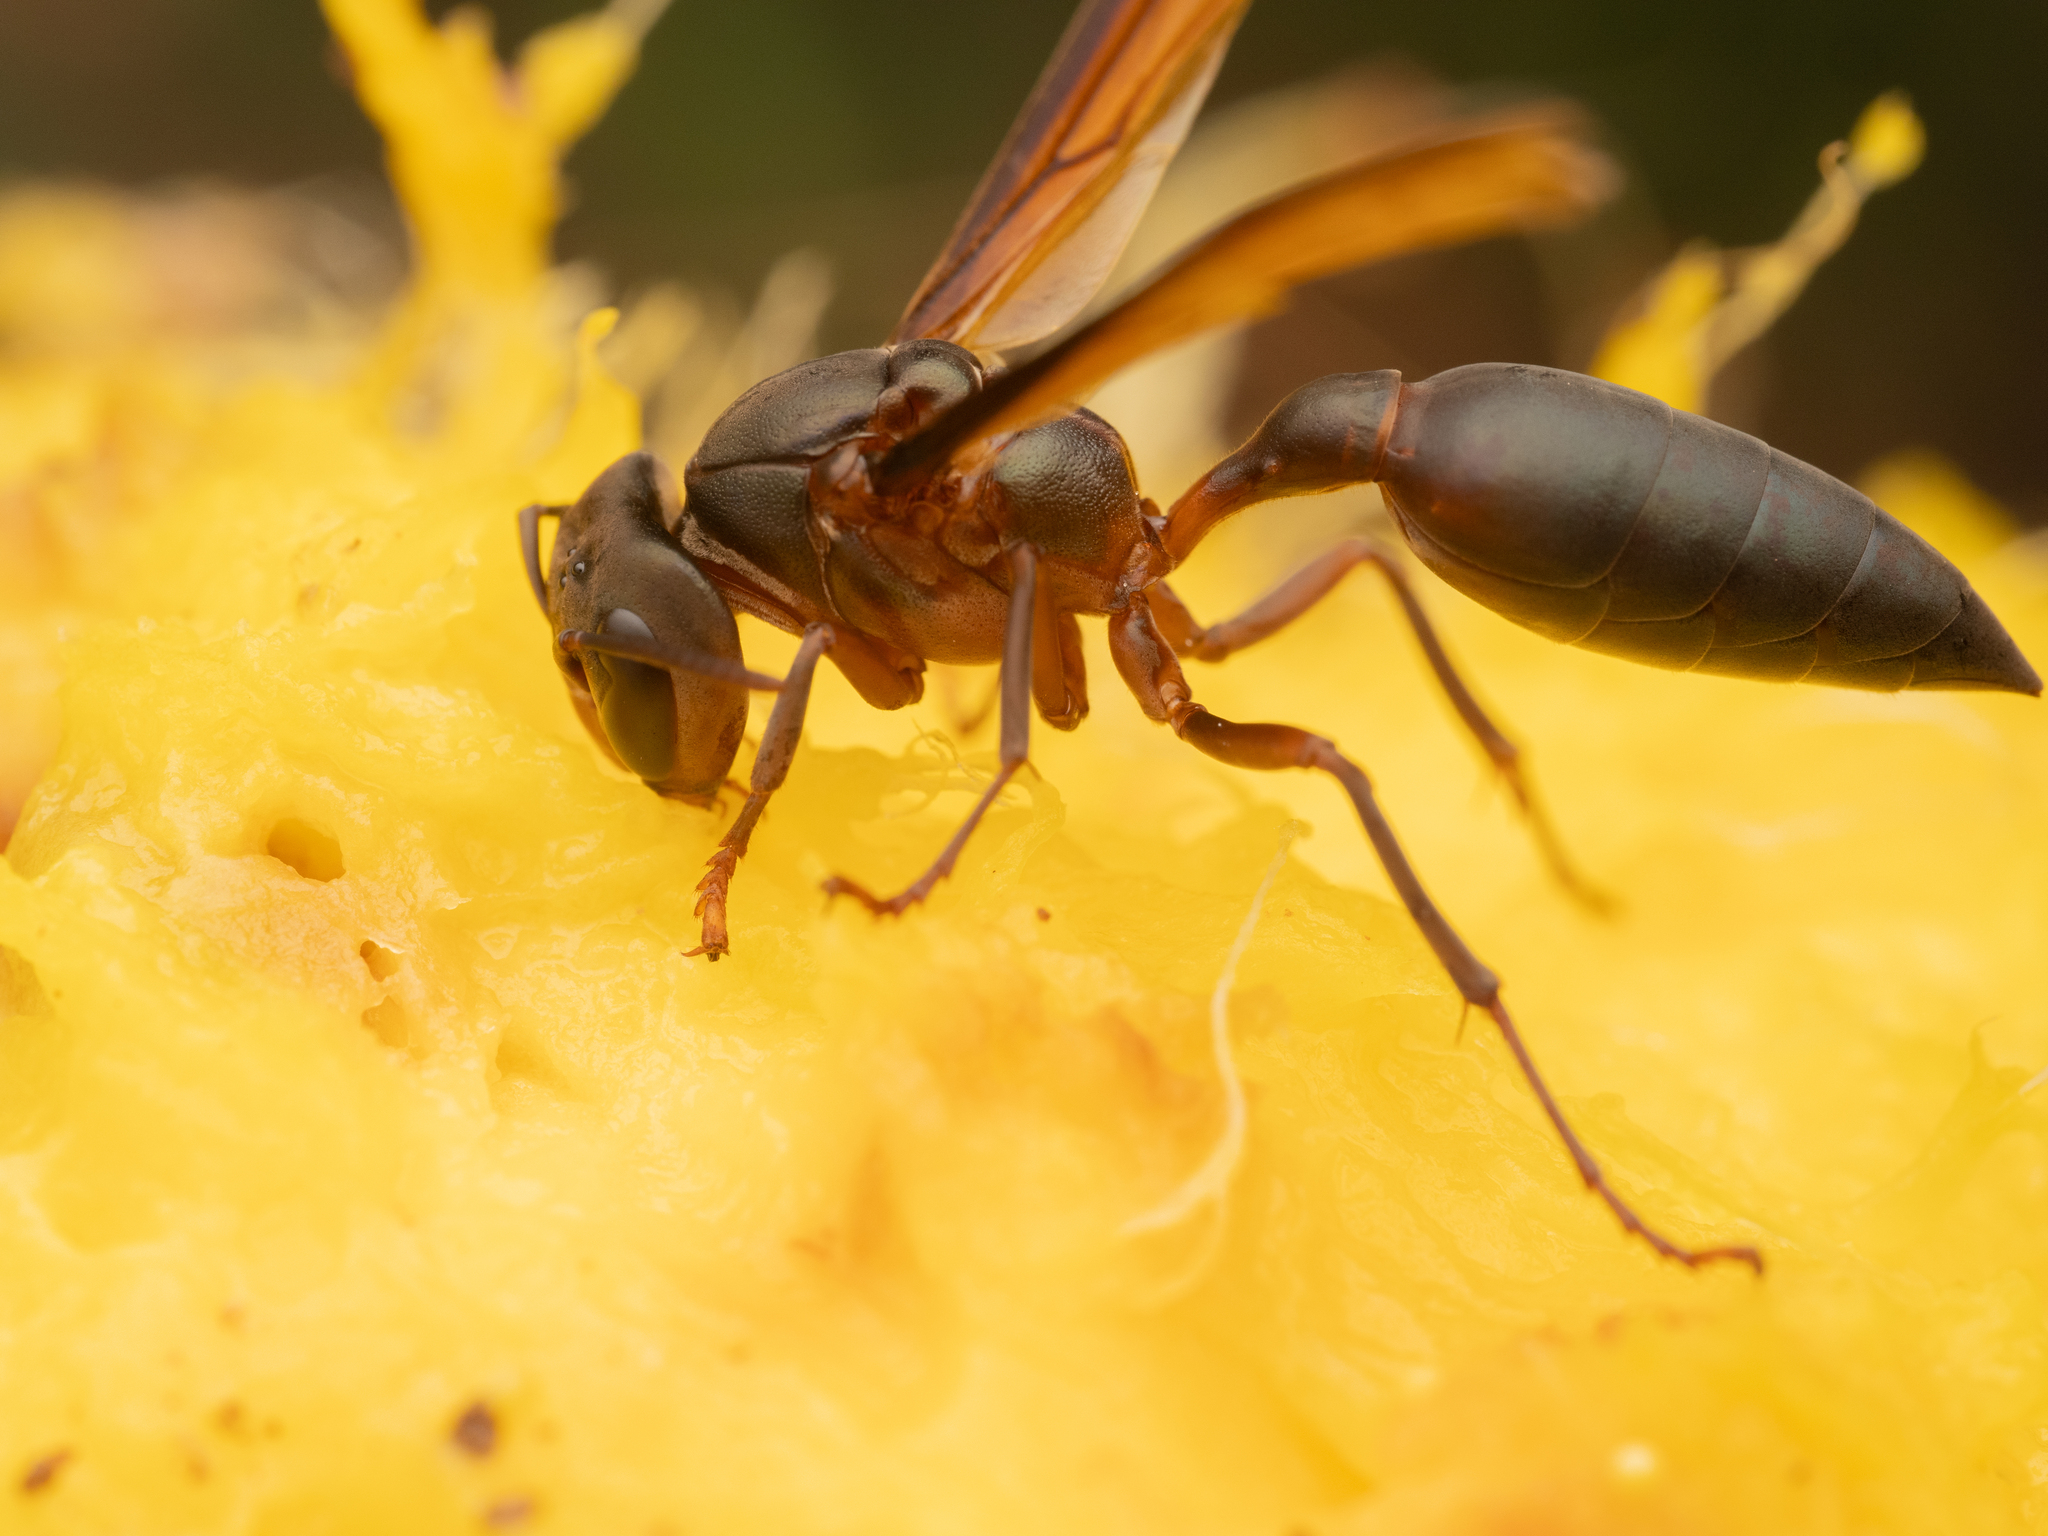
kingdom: Animalia
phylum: Arthropoda
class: Insecta
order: Hymenoptera
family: Vespidae
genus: Synoeca
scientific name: Synoeca chalybea
